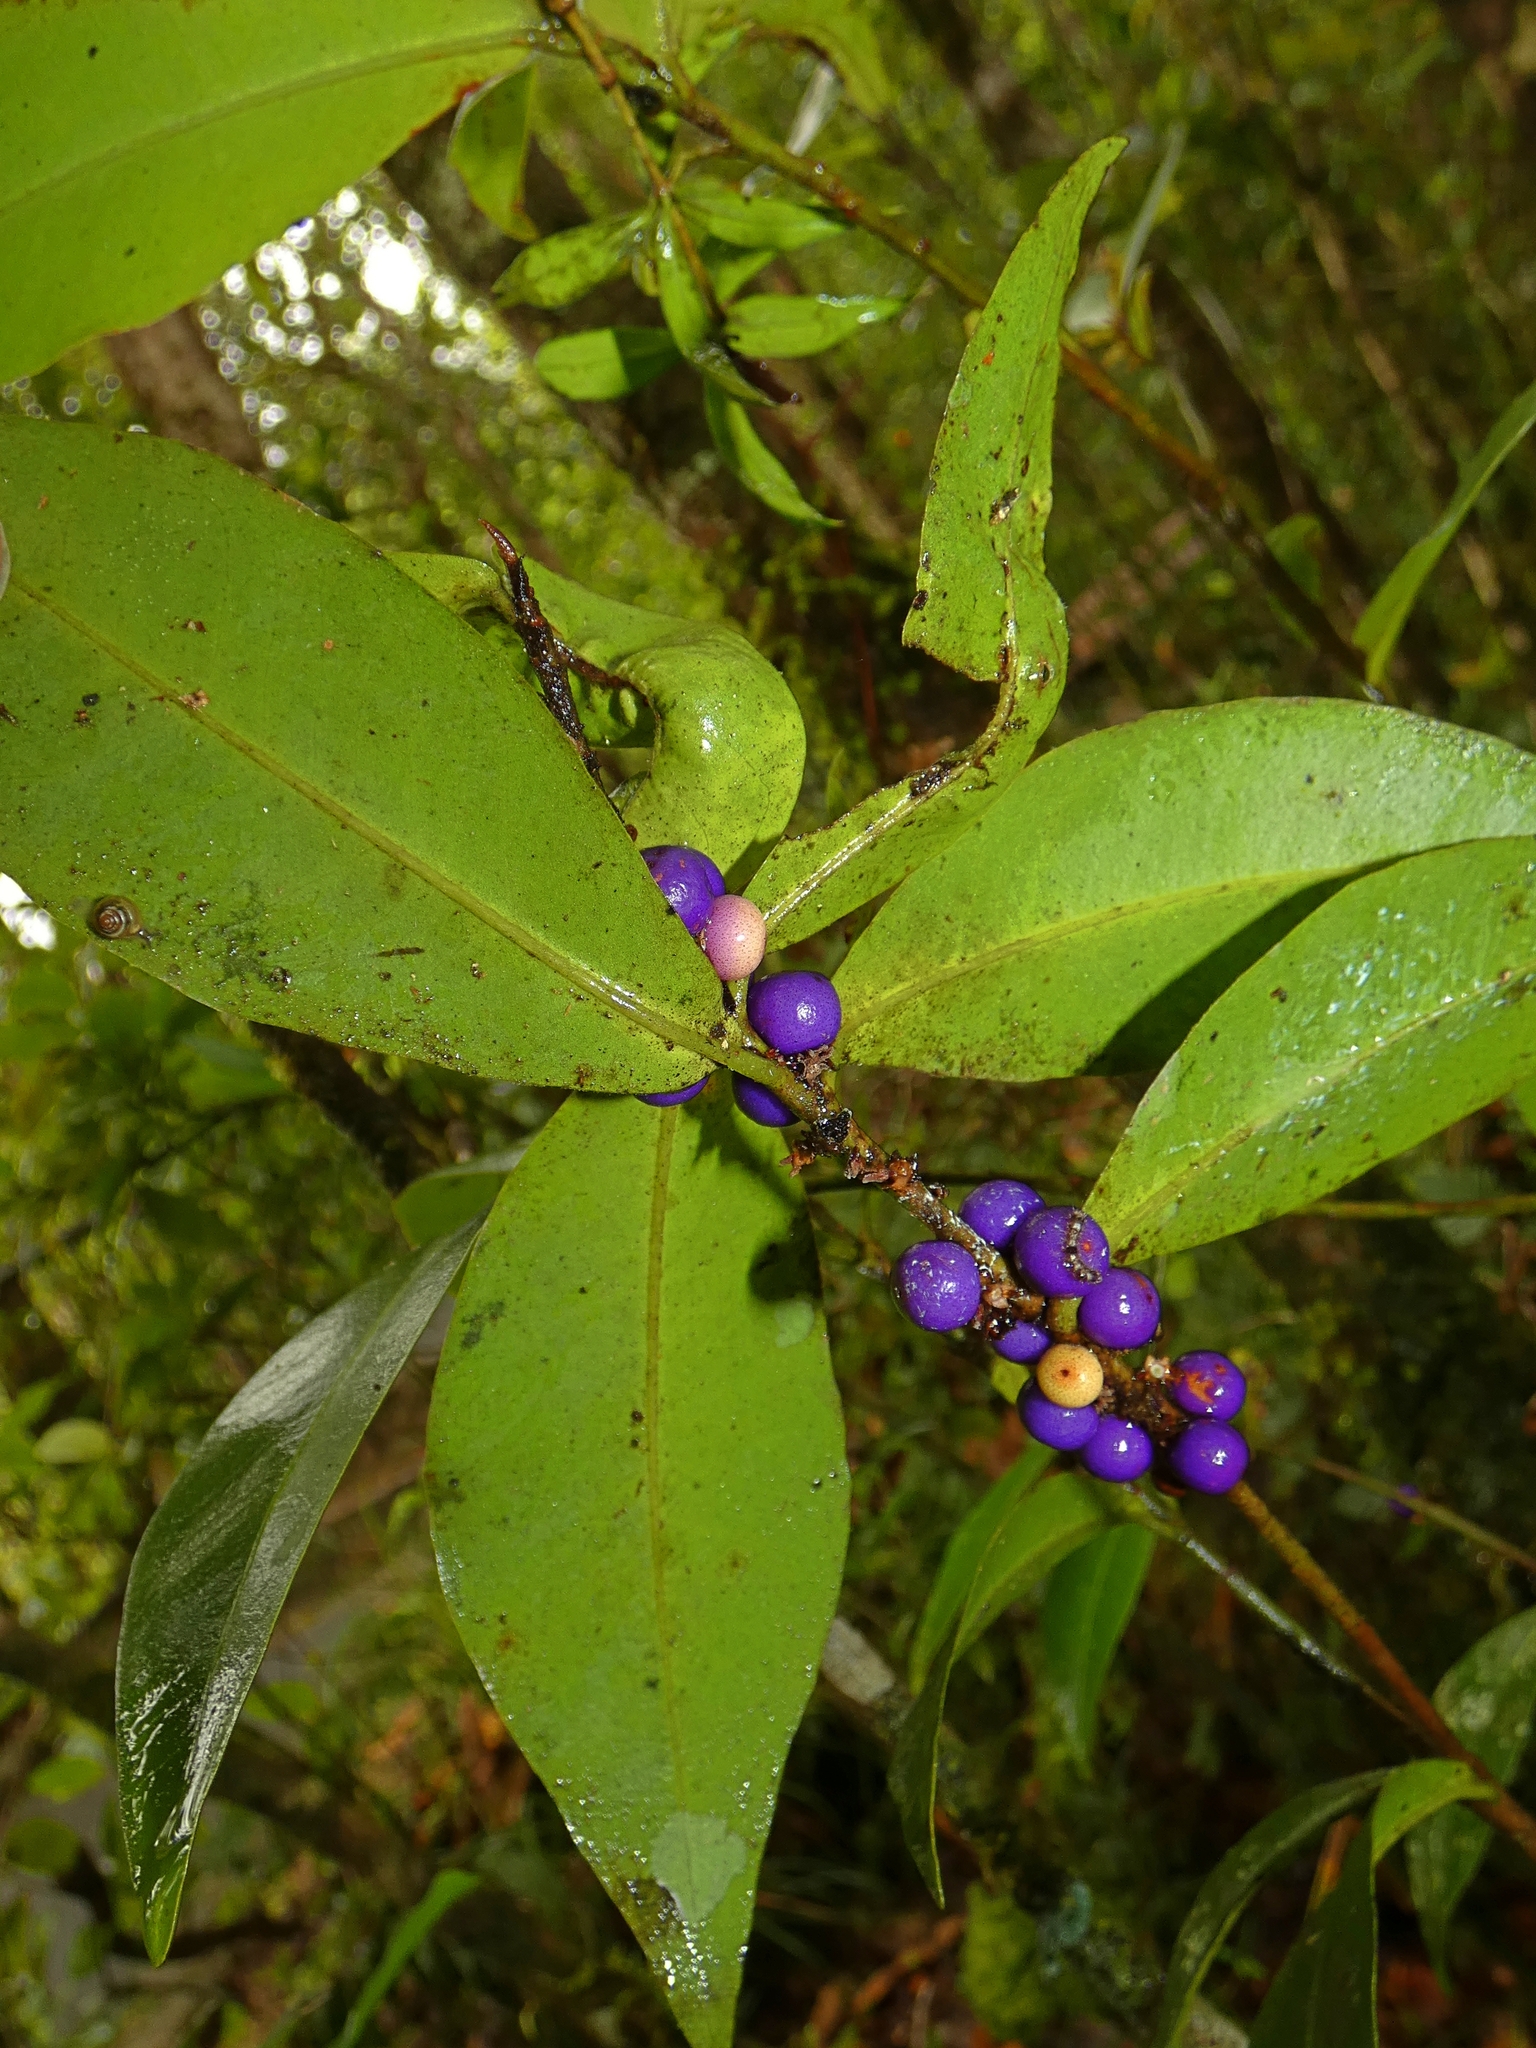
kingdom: Plantae
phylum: Tracheophyta
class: Magnoliopsida
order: Ericales
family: Primulaceae
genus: Myrsine
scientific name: Myrsine subsessilis
